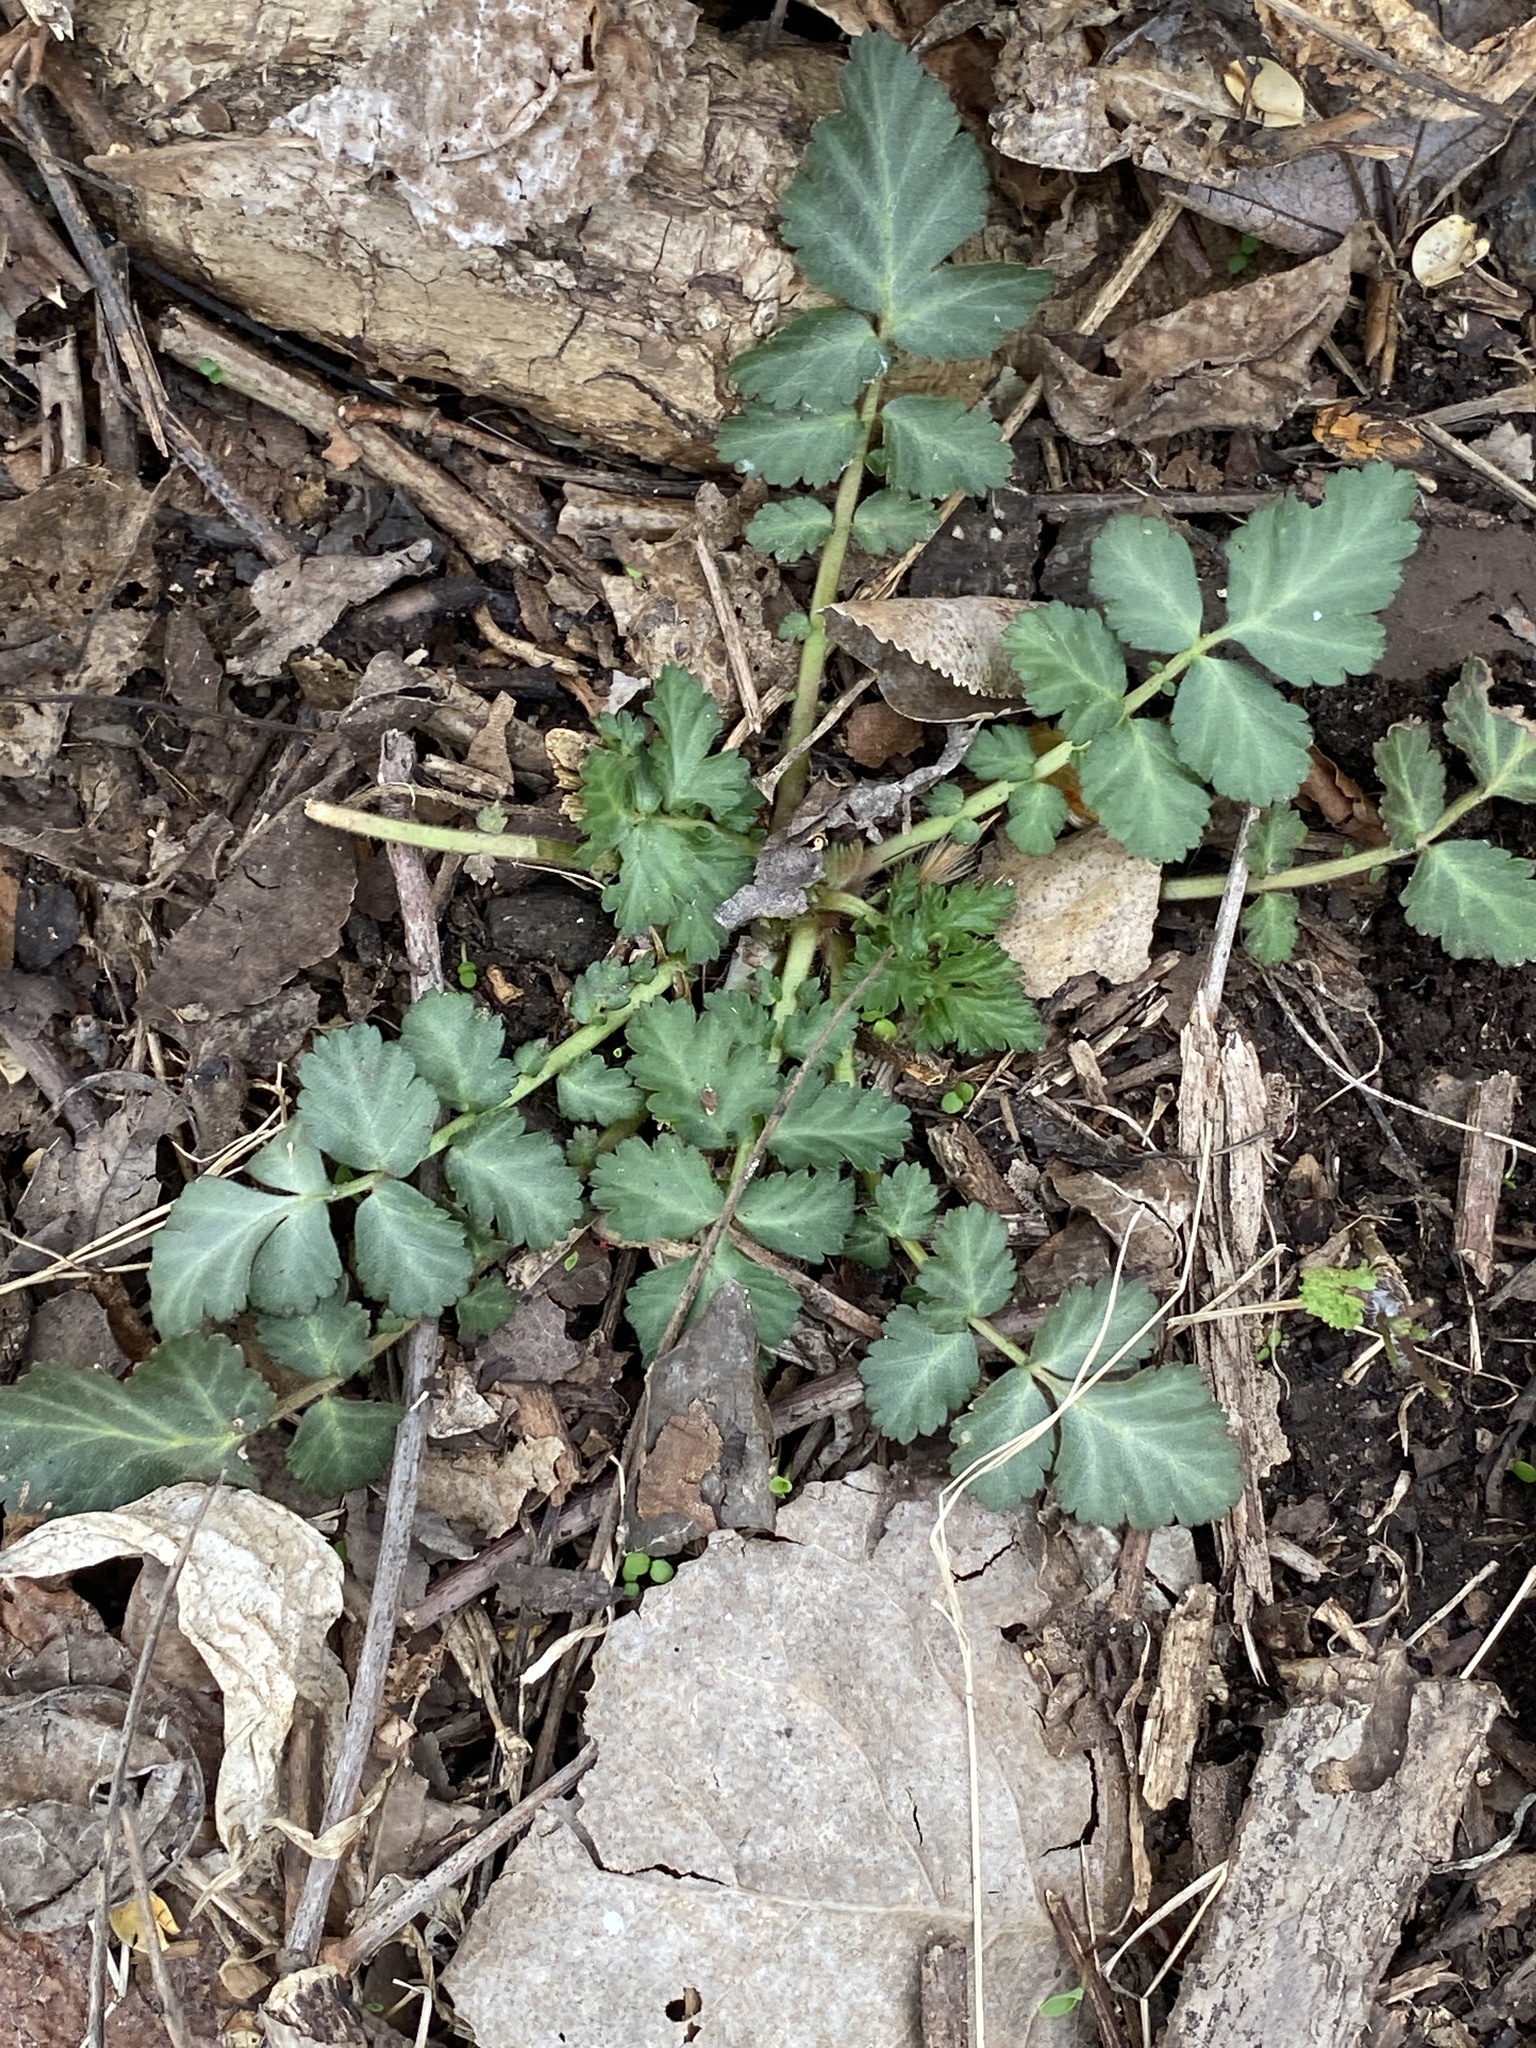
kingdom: Plantae
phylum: Tracheophyta
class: Magnoliopsida
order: Rosales
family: Rosaceae
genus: Geum
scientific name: Geum canadense
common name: White avens
